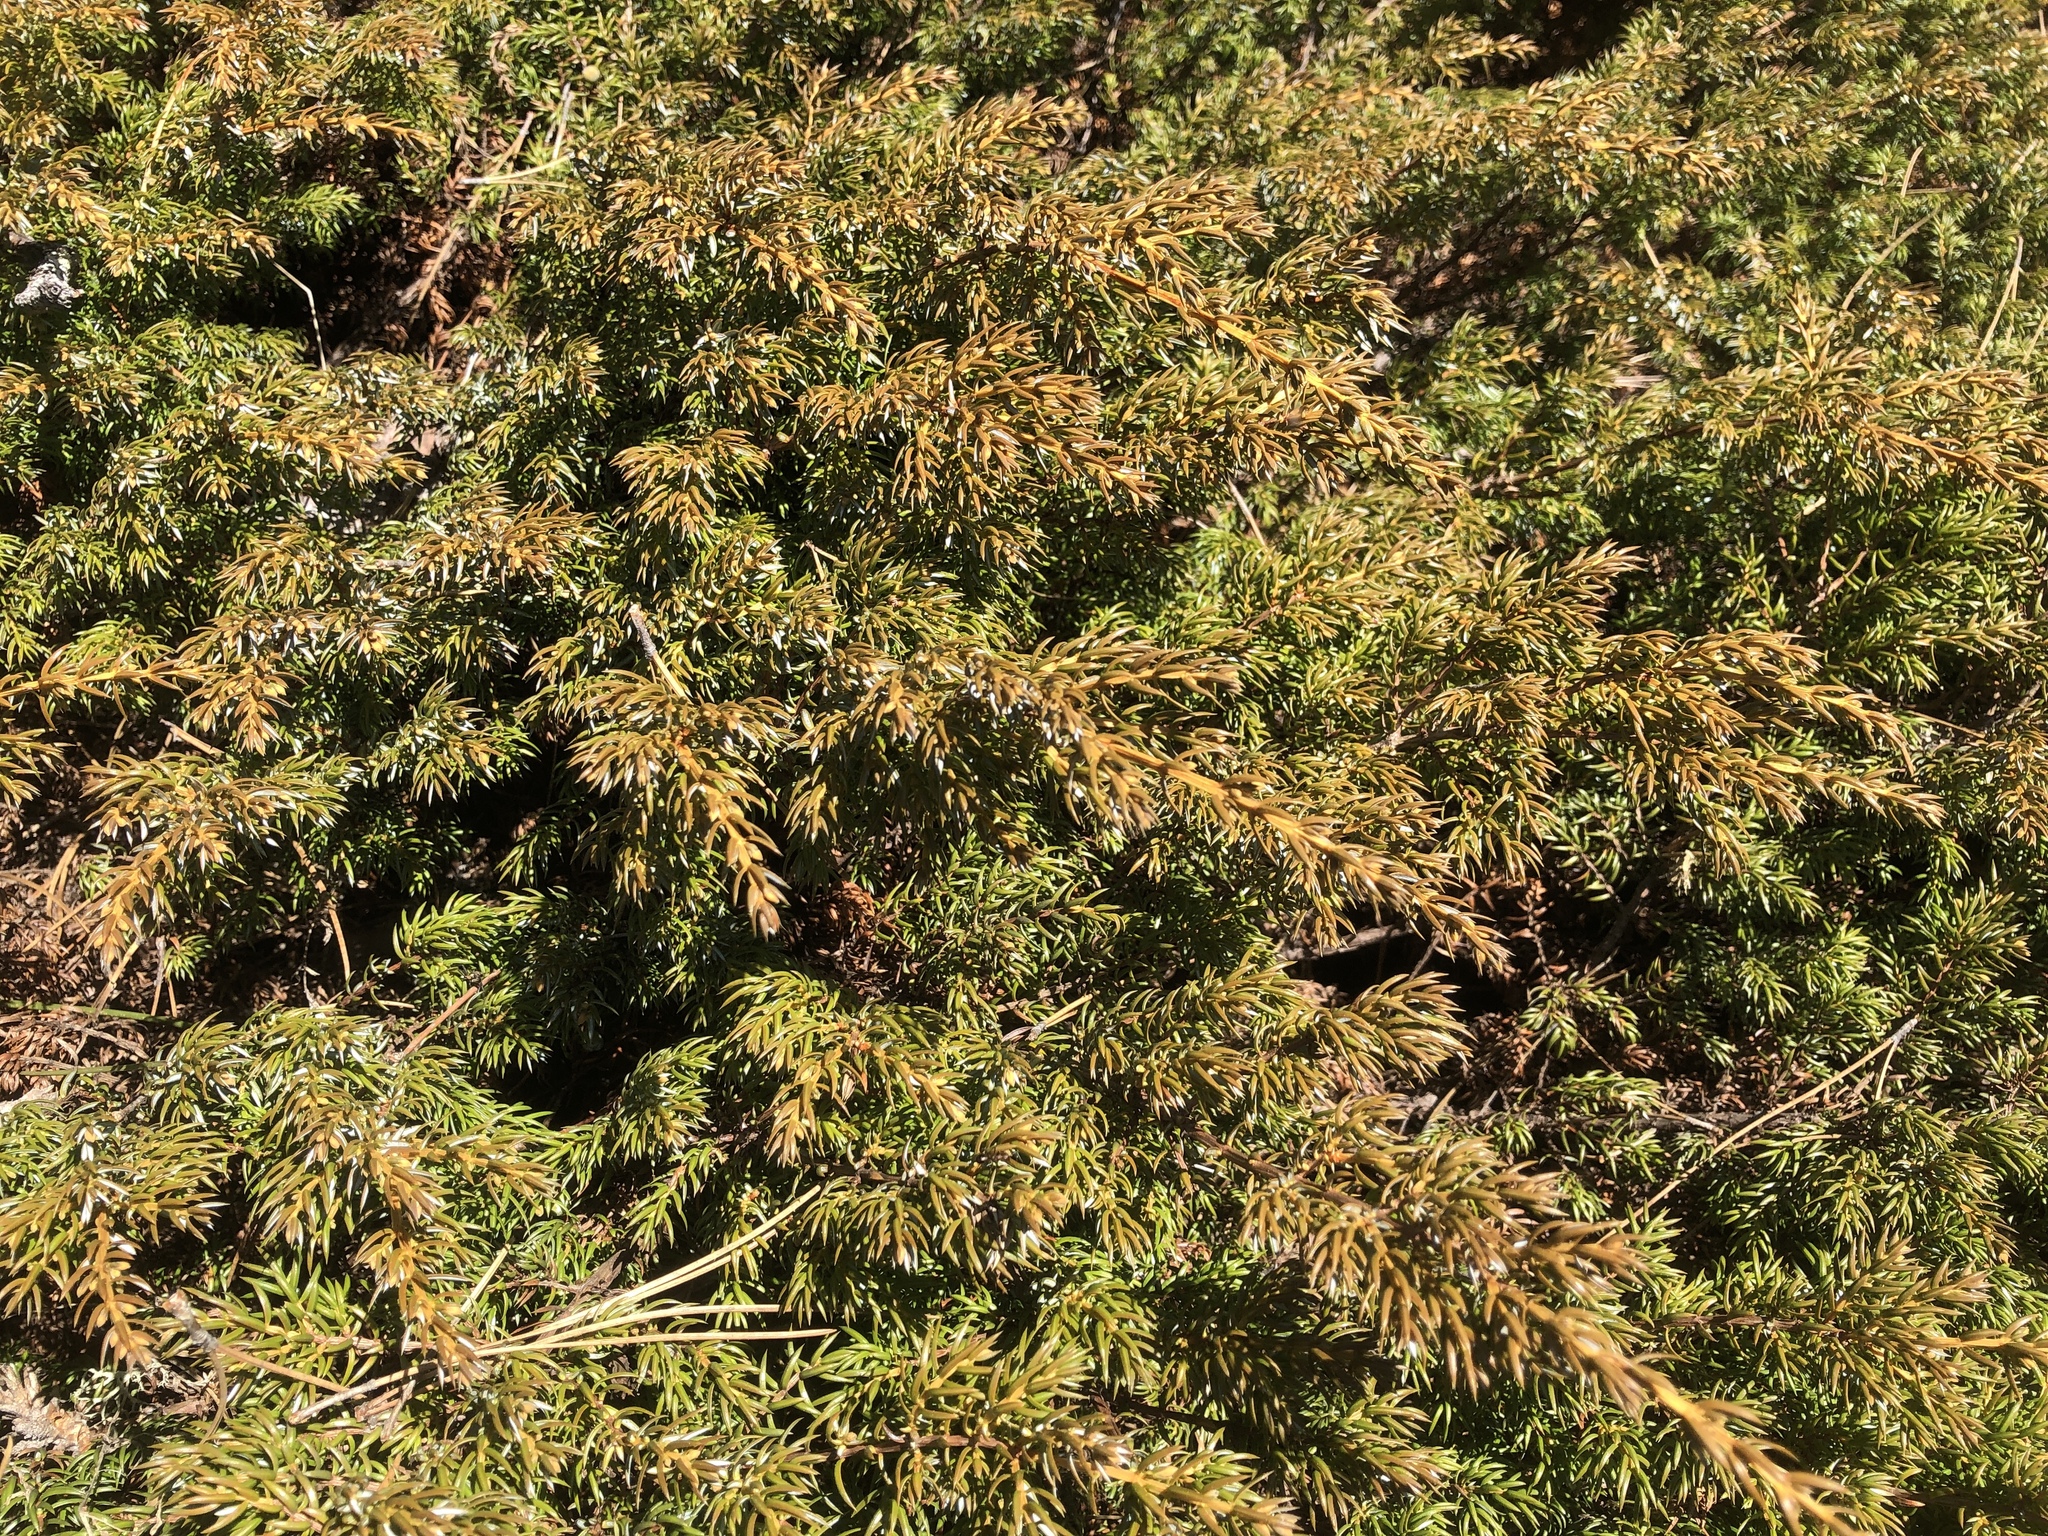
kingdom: Plantae
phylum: Tracheophyta
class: Pinopsida
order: Pinales
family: Cupressaceae
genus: Juniperus
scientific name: Juniperus communis
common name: Common juniper
